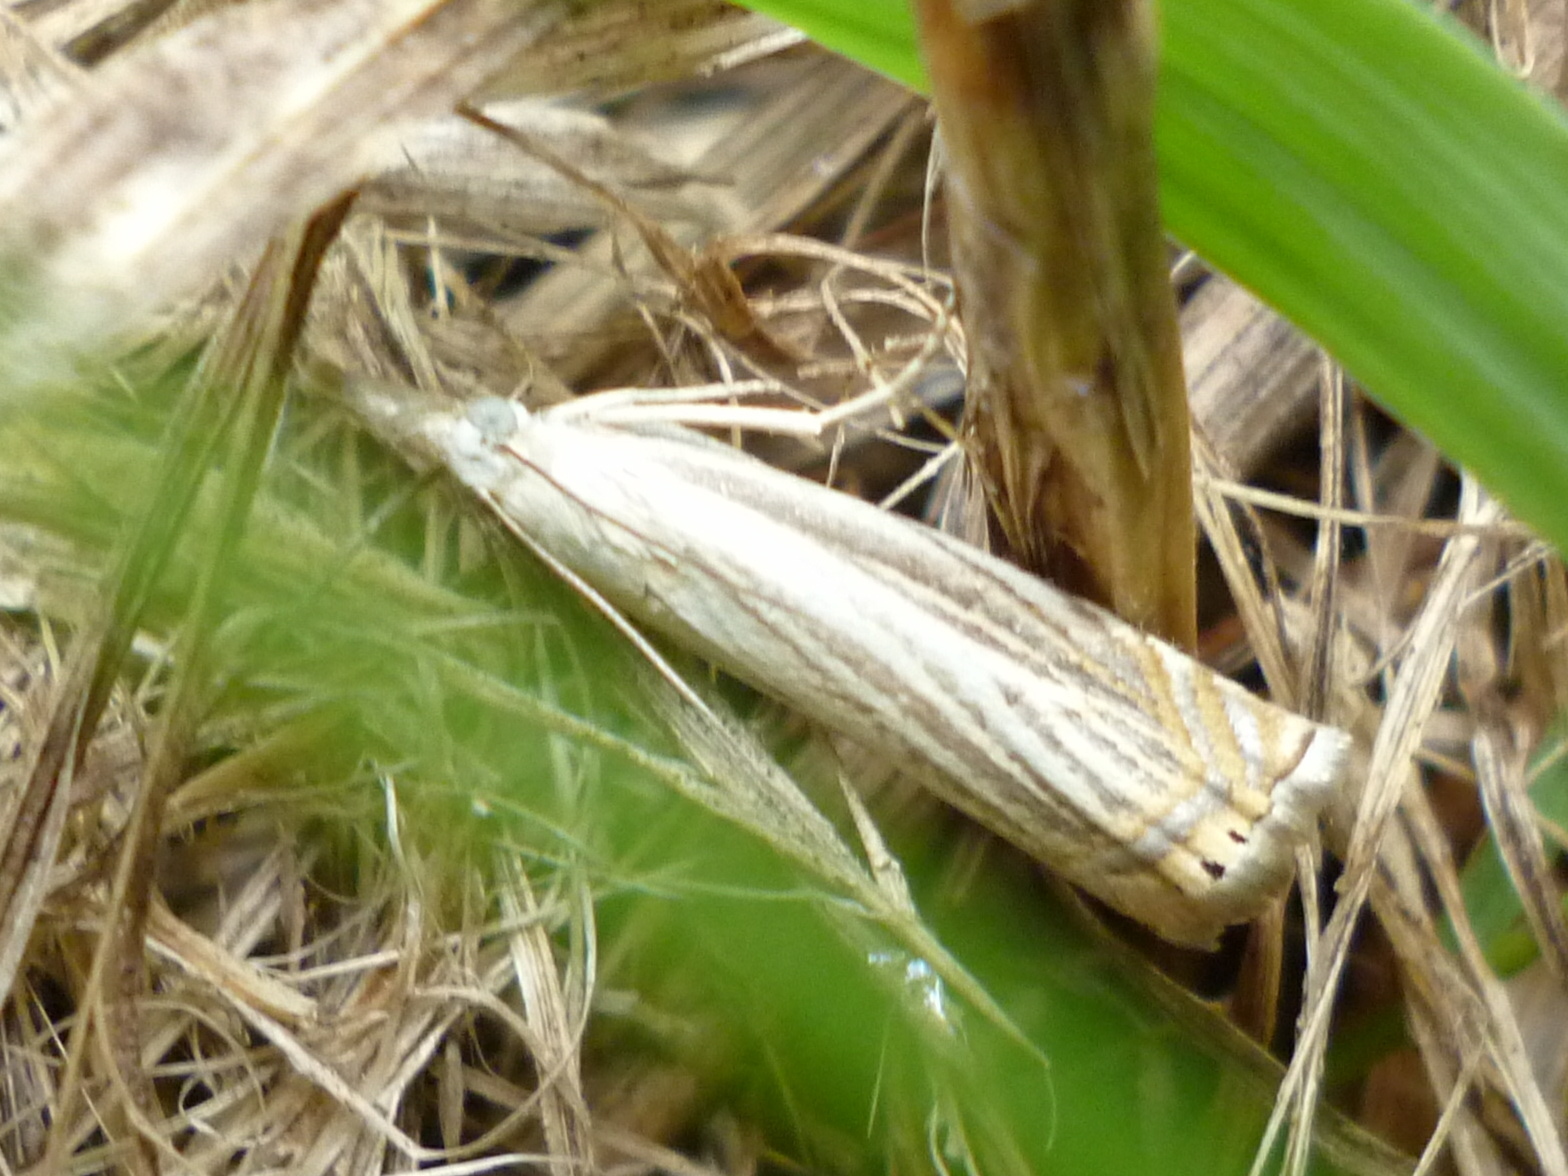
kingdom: Animalia
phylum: Arthropoda
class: Insecta
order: Lepidoptera
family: Crambidae
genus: Chrysoteuchia
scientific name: Chrysoteuchia topiarius
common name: Topiary grass-veneer
